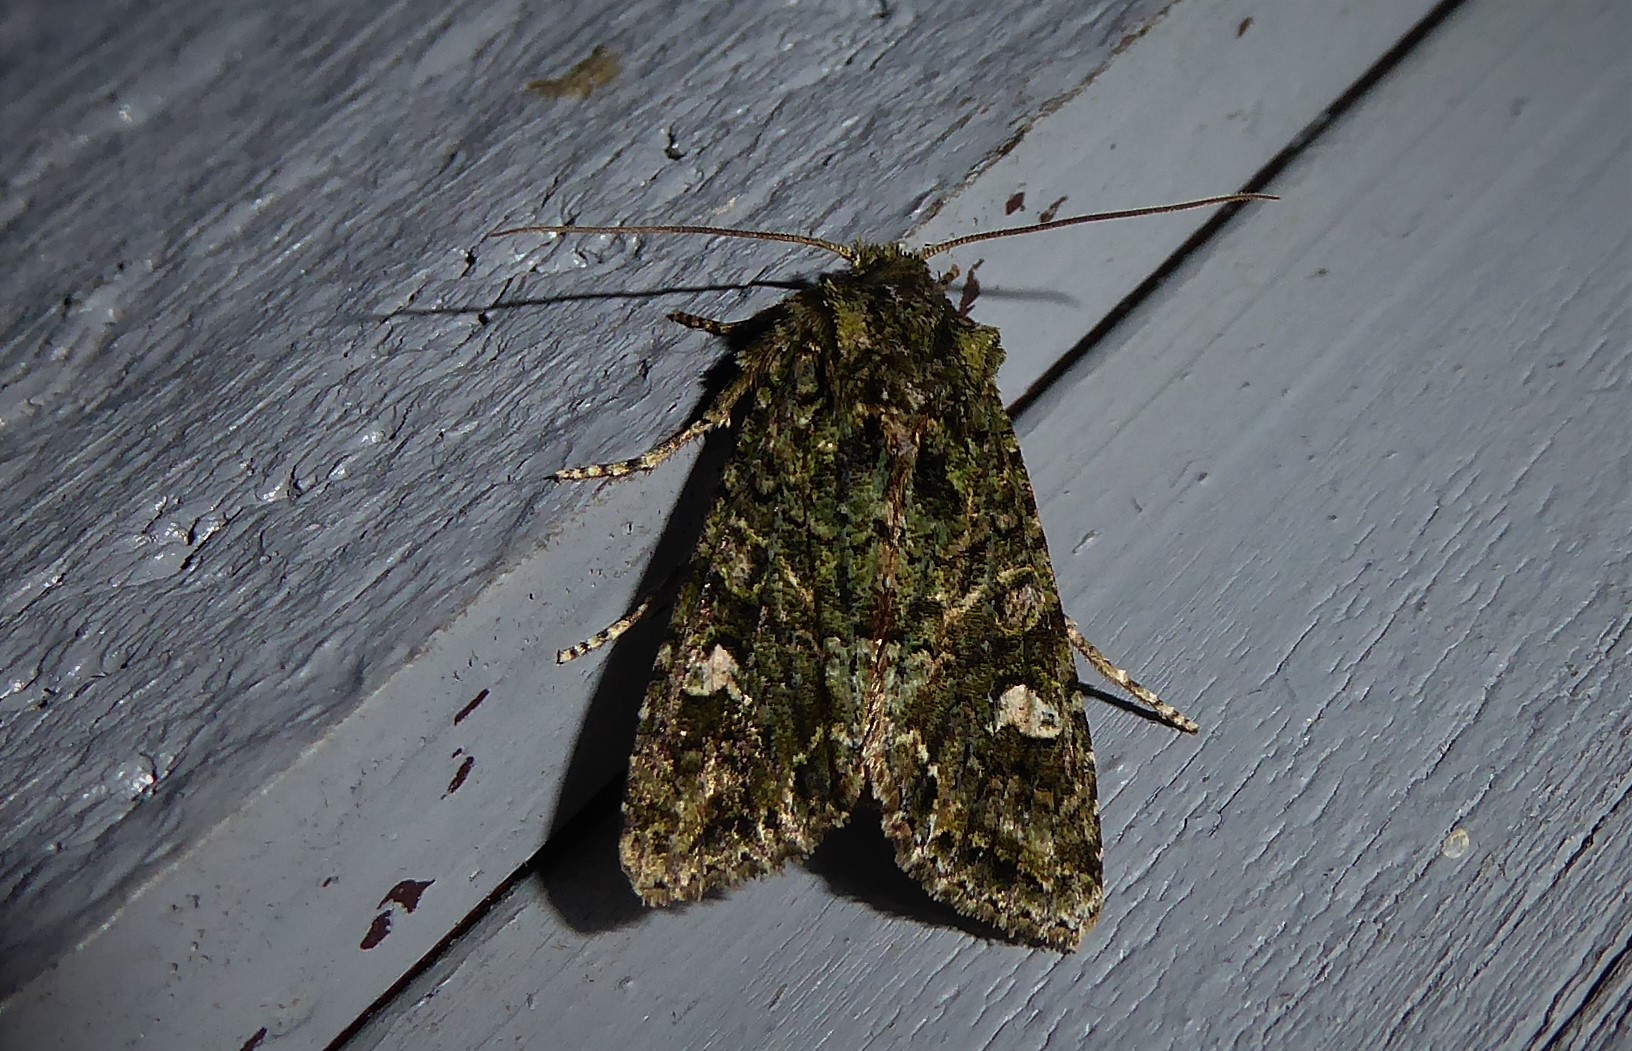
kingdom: Animalia
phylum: Arthropoda
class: Insecta
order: Lepidoptera
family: Noctuidae
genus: Ichneutica
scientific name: Ichneutica
